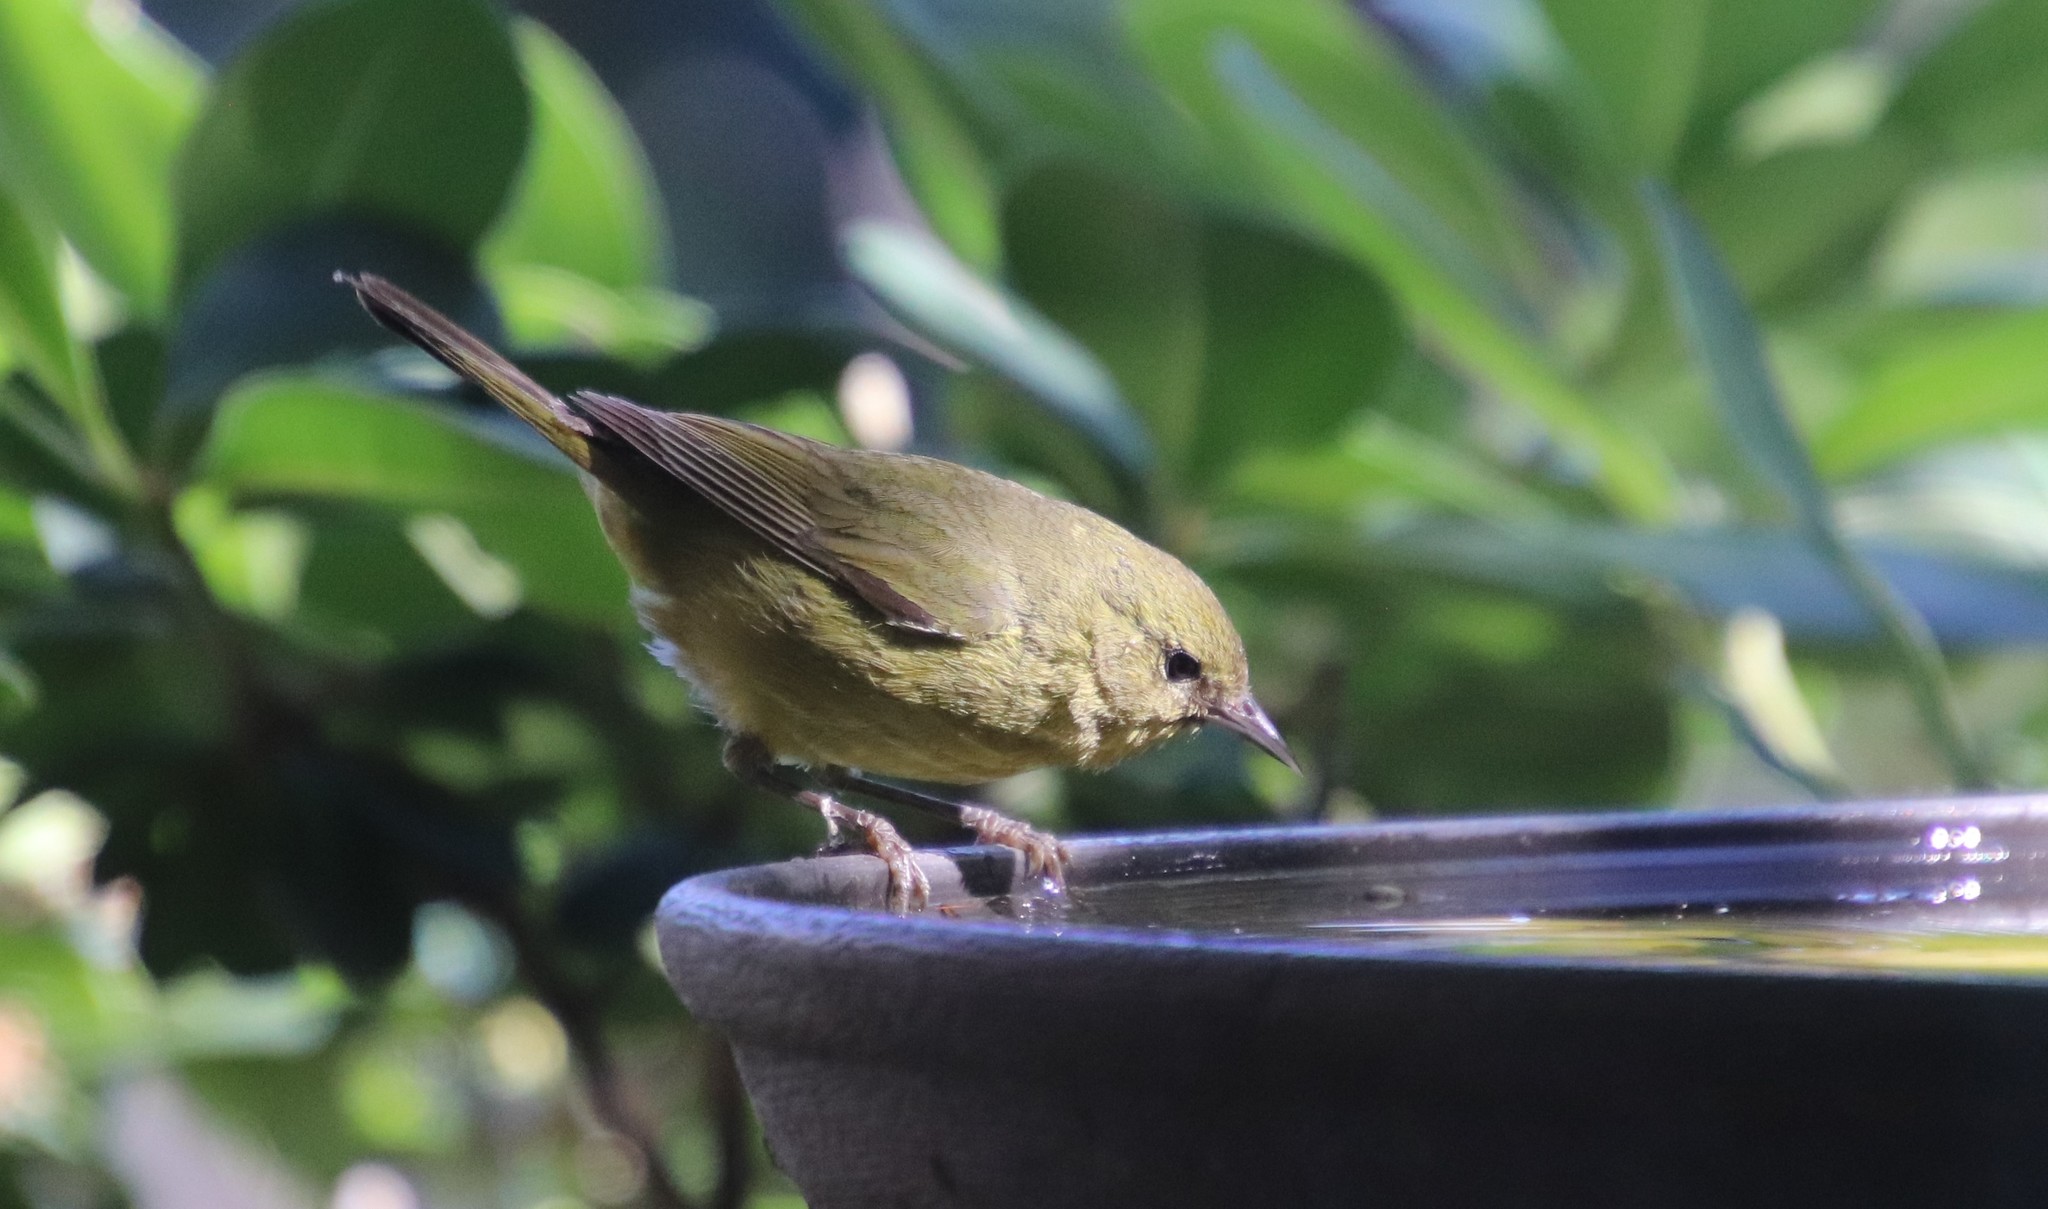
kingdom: Animalia
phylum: Chordata
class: Aves
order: Passeriformes
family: Parulidae
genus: Leiothlypis
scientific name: Leiothlypis celata
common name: Orange-crowned warbler
